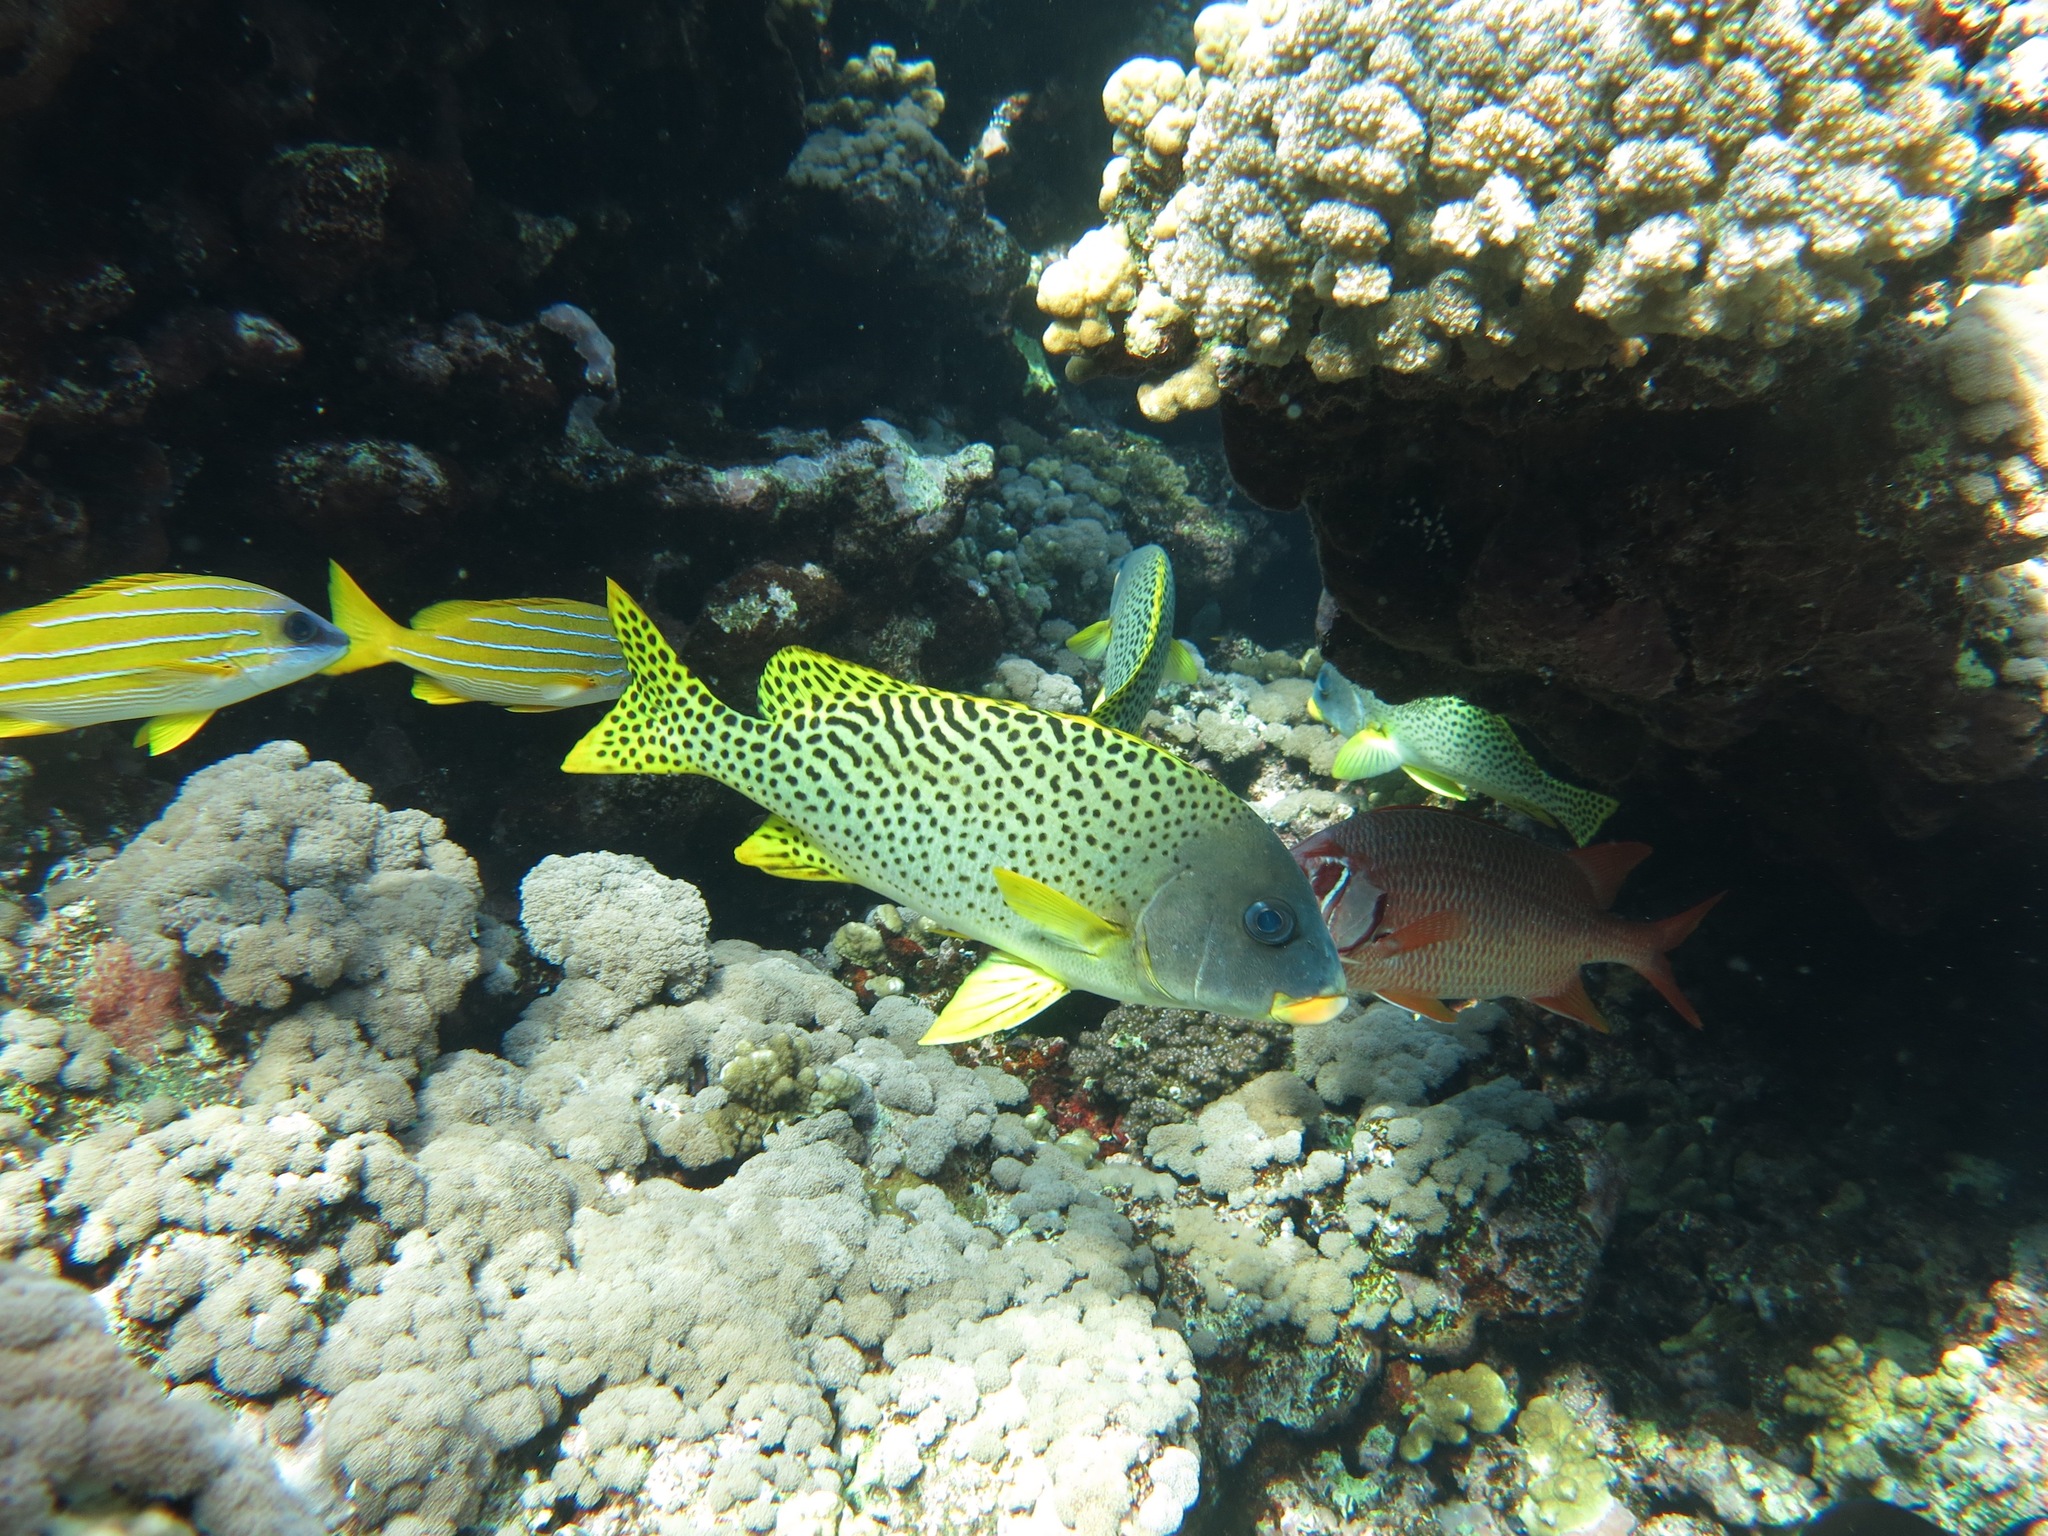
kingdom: Animalia
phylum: Chordata
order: Perciformes
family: Haemulidae
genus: Plectorhinchus
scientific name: Plectorhinchus gaterinus
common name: Blackspotted rubberlip
